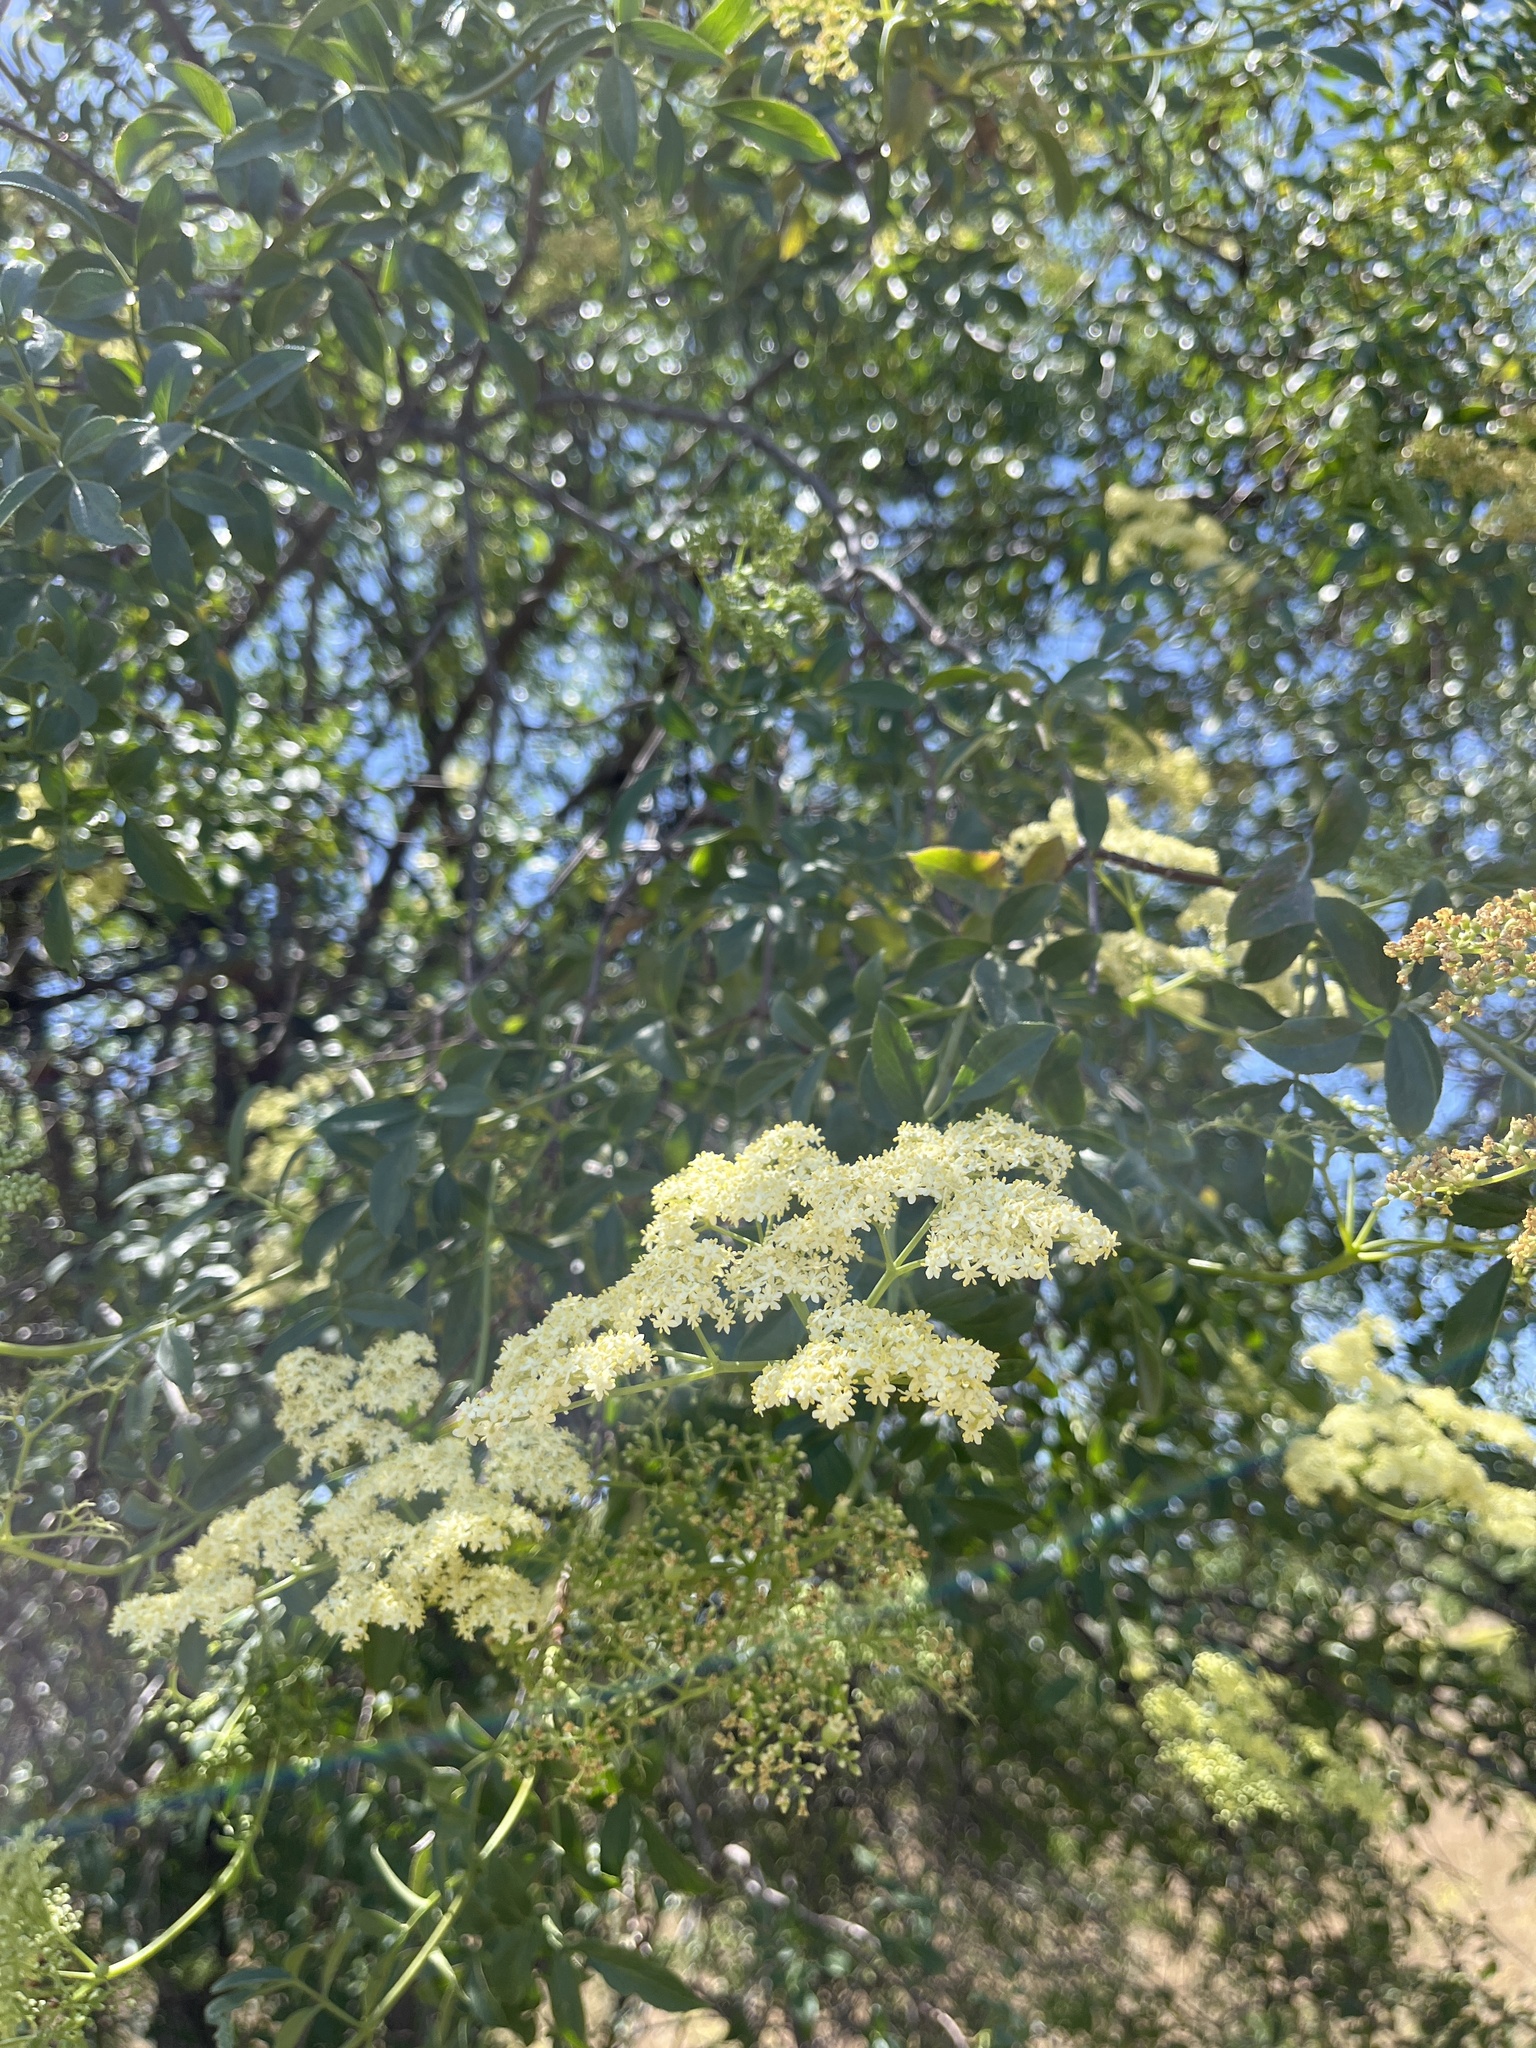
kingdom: Plantae
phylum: Tracheophyta
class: Magnoliopsida
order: Dipsacales
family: Viburnaceae
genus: Sambucus
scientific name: Sambucus cerulea
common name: Blue elder
